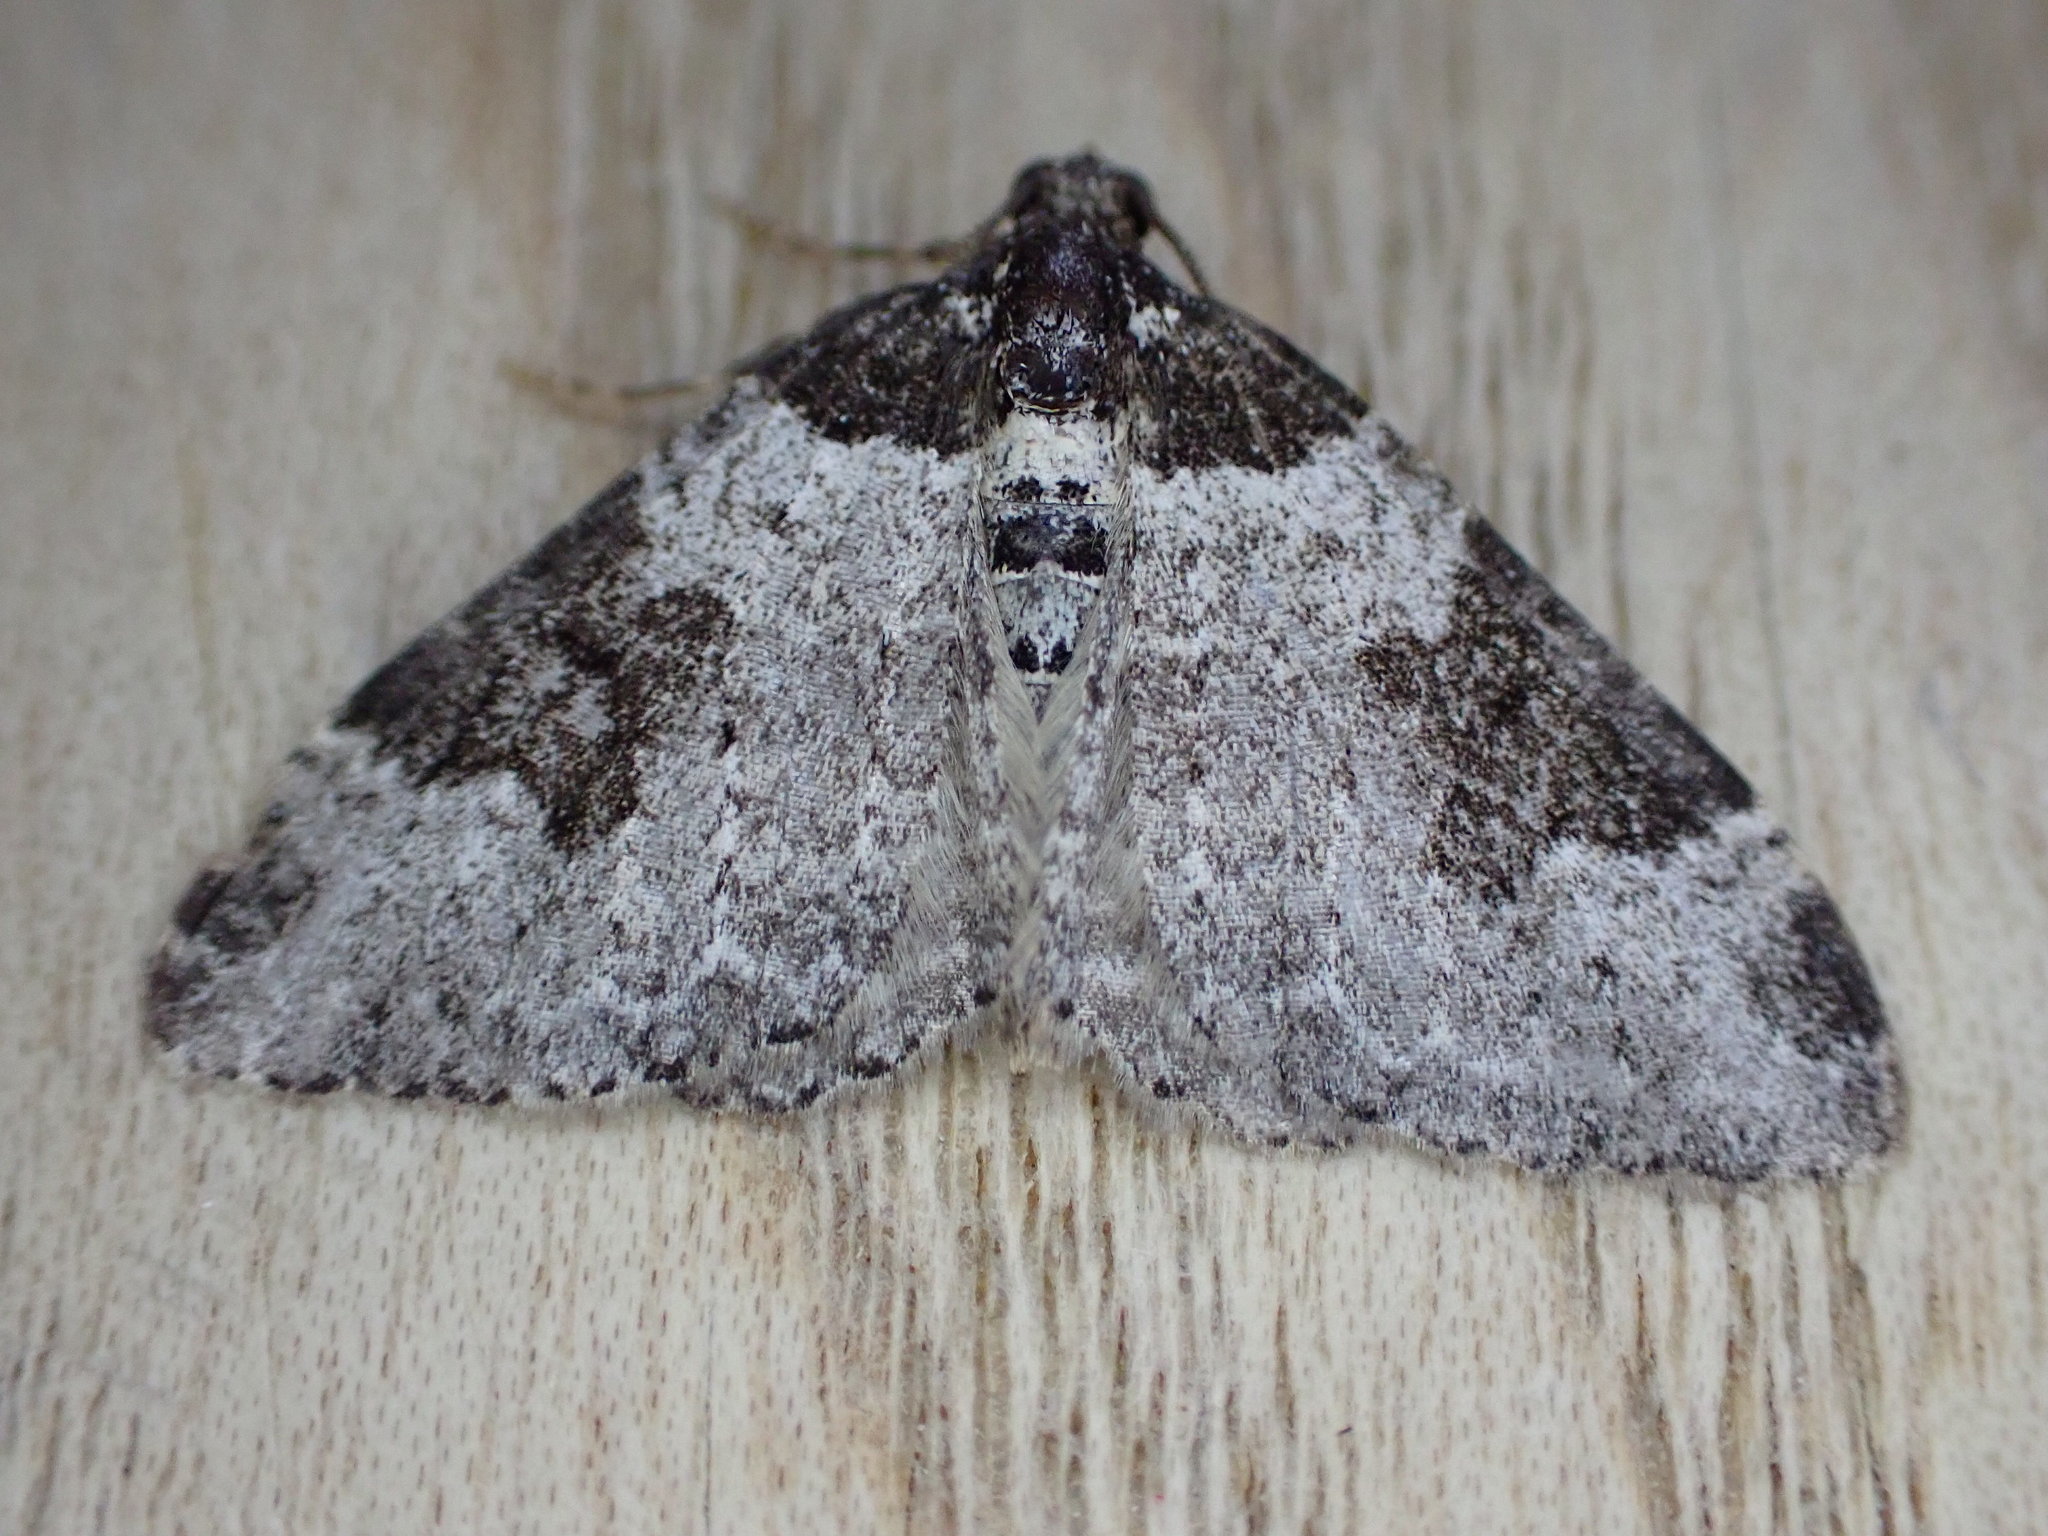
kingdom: Animalia
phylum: Arthropoda
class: Insecta
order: Lepidoptera
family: Geometridae
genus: Xanthorhoe
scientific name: Xanthorhoe fluctuata
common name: Garden carpet
